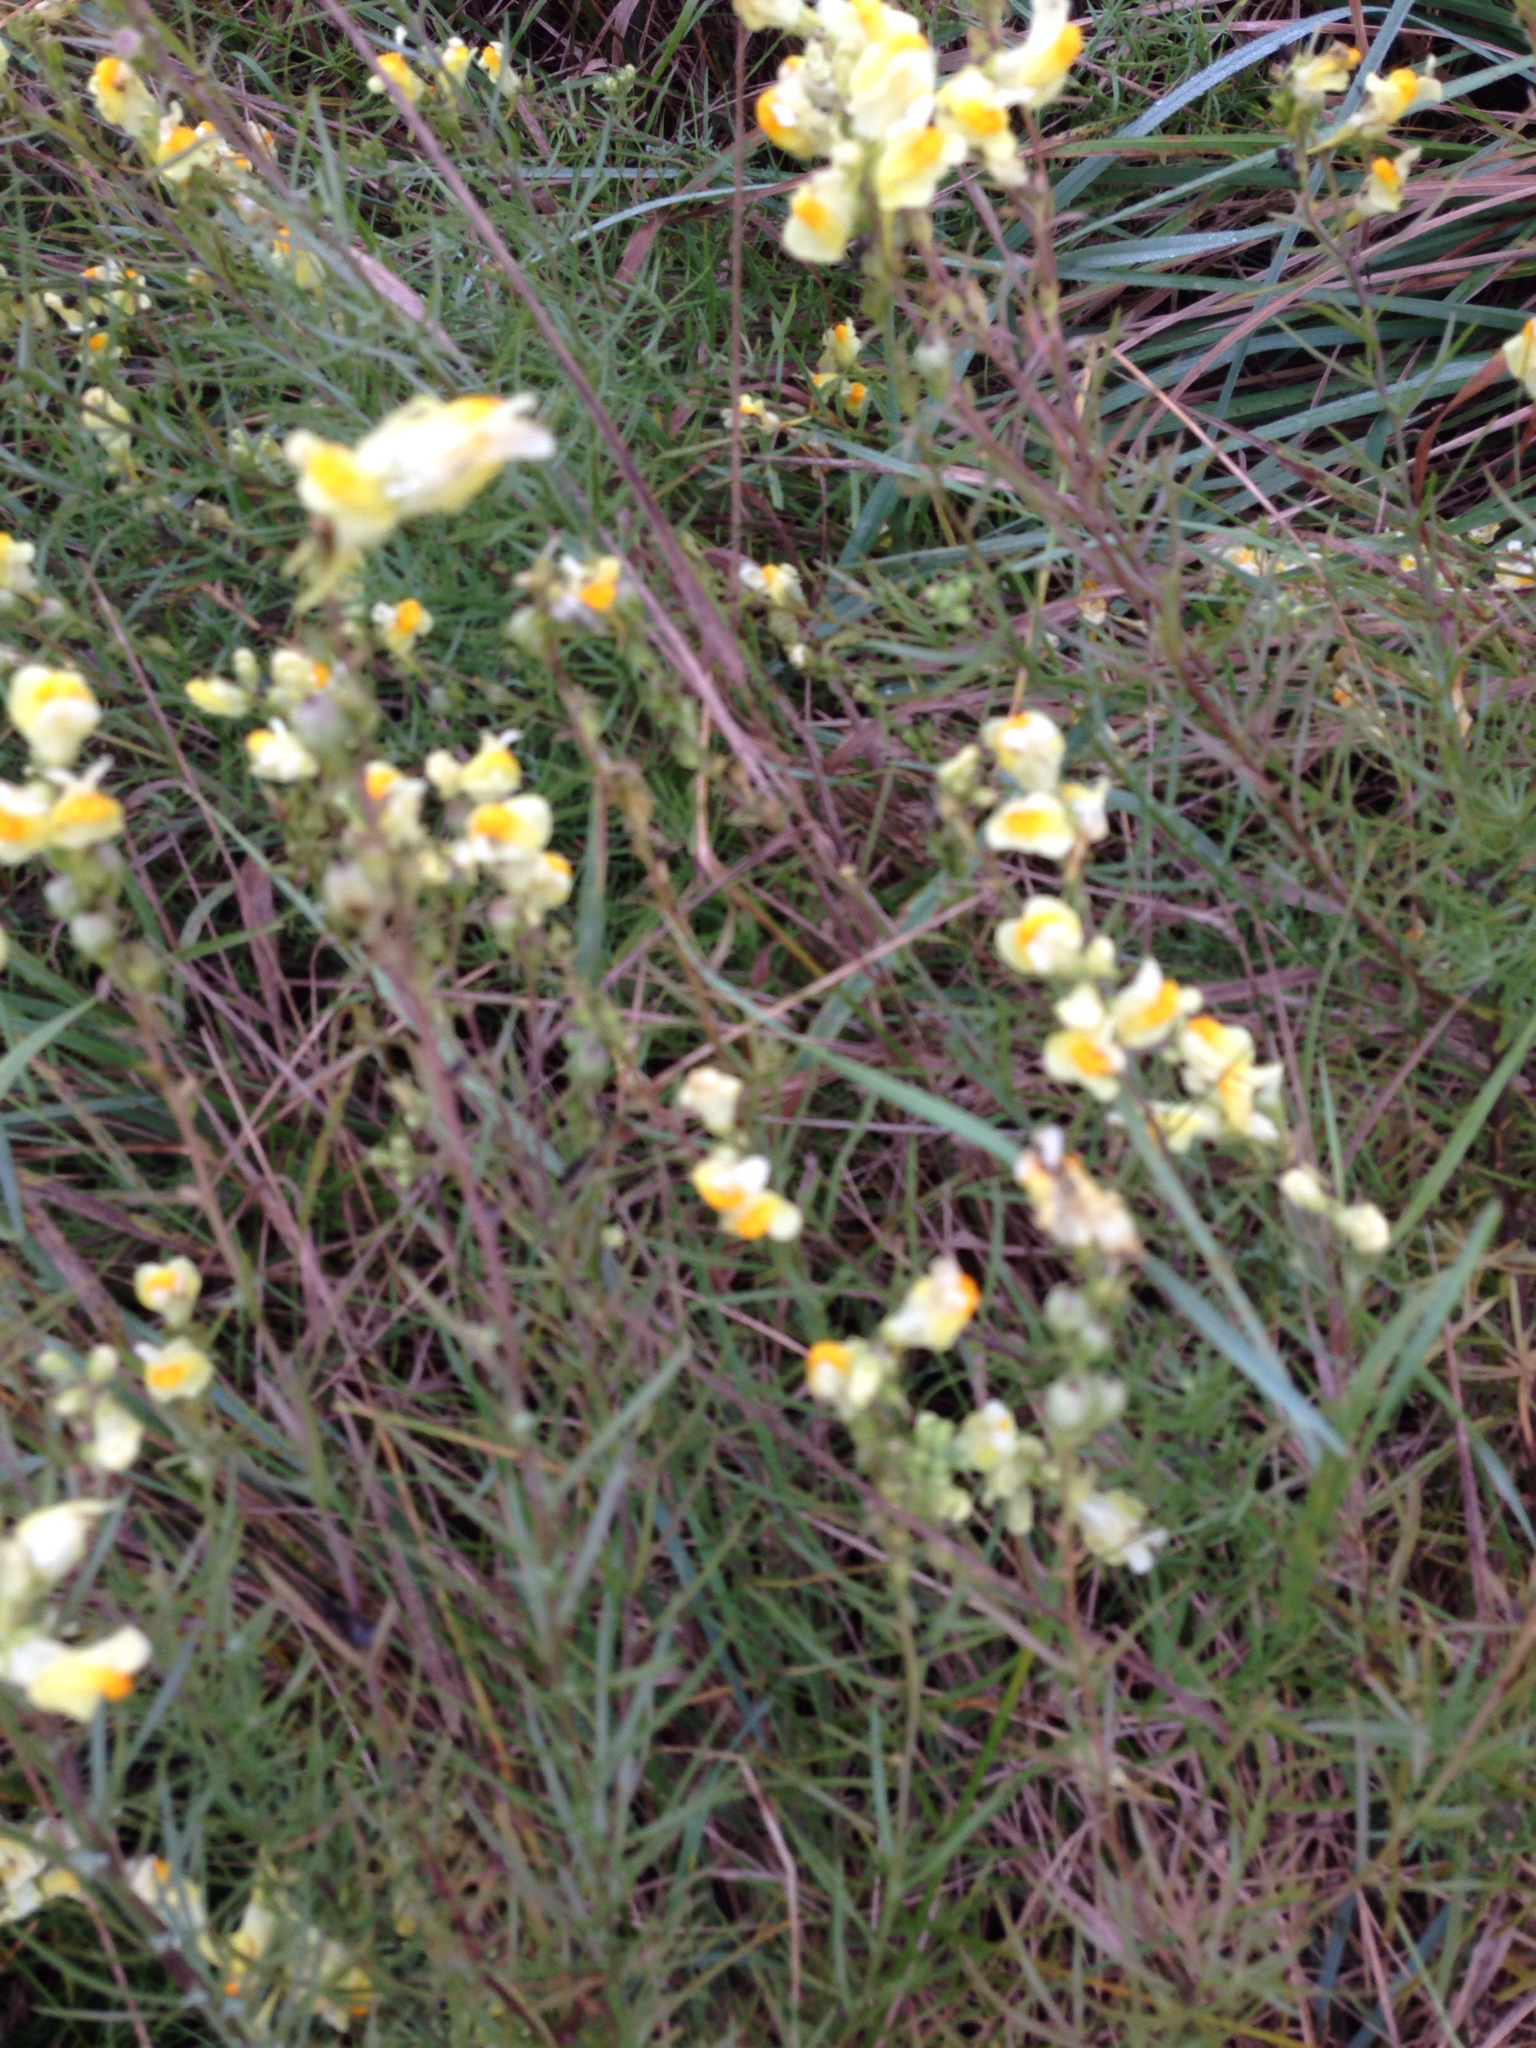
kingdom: Plantae
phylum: Tracheophyta
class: Magnoliopsida
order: Lamiales
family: Plantaginaceae
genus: Linaria
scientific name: Linaria vulgaris
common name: Butter and eggs
